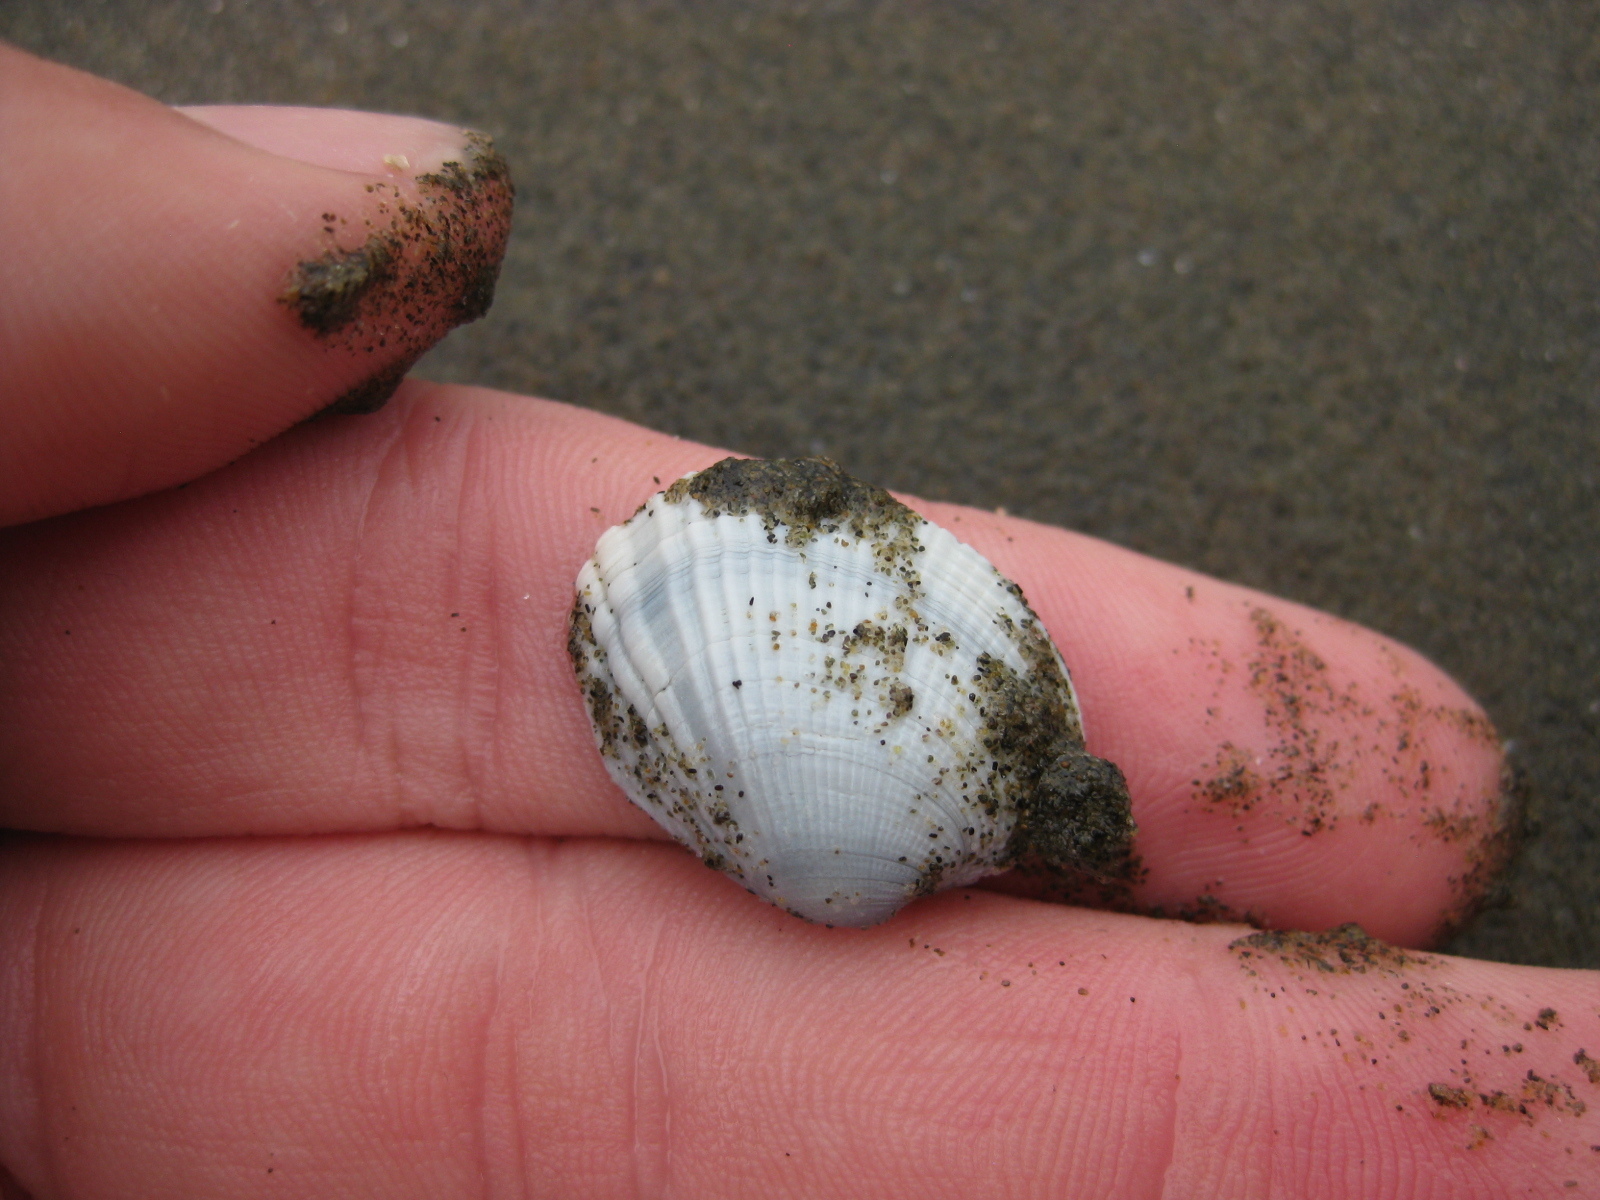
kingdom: Animalia
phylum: Mollusca
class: Bivalvia
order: Venerida
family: Veneridae
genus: Leukoma
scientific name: Leukoma crassicosta
